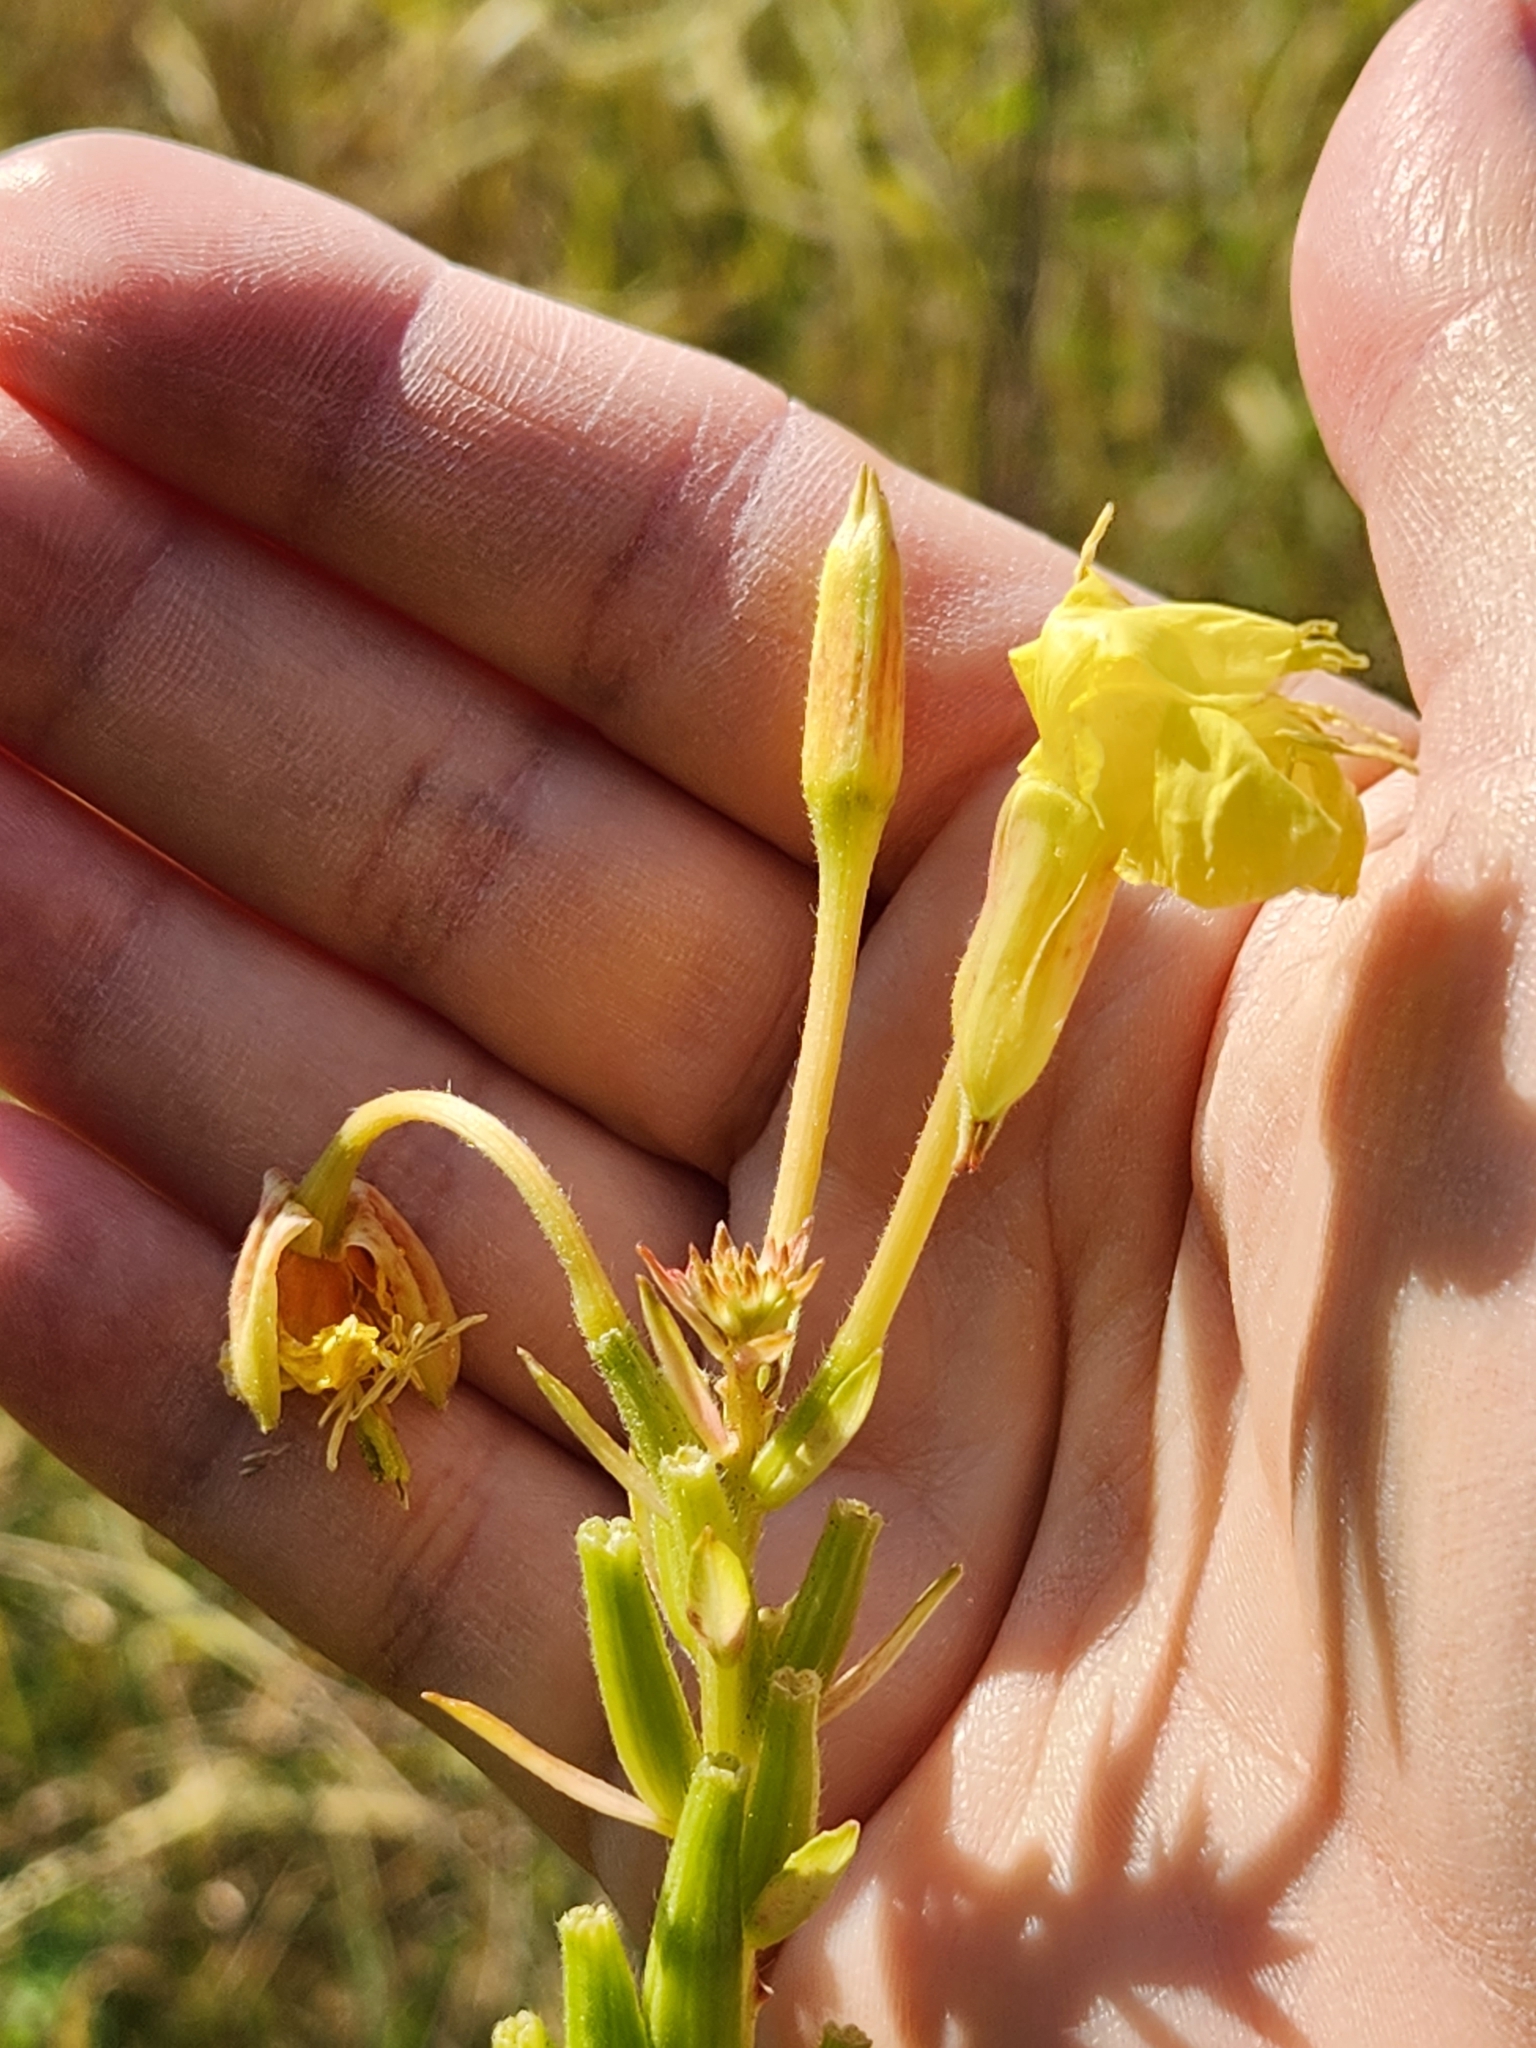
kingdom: Plantae
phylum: Tracheophyta
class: Magnoliopsida
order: Myrtales
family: Onagraceae
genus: Oenothera
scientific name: Oenothera biennis
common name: Common evening-primrose
